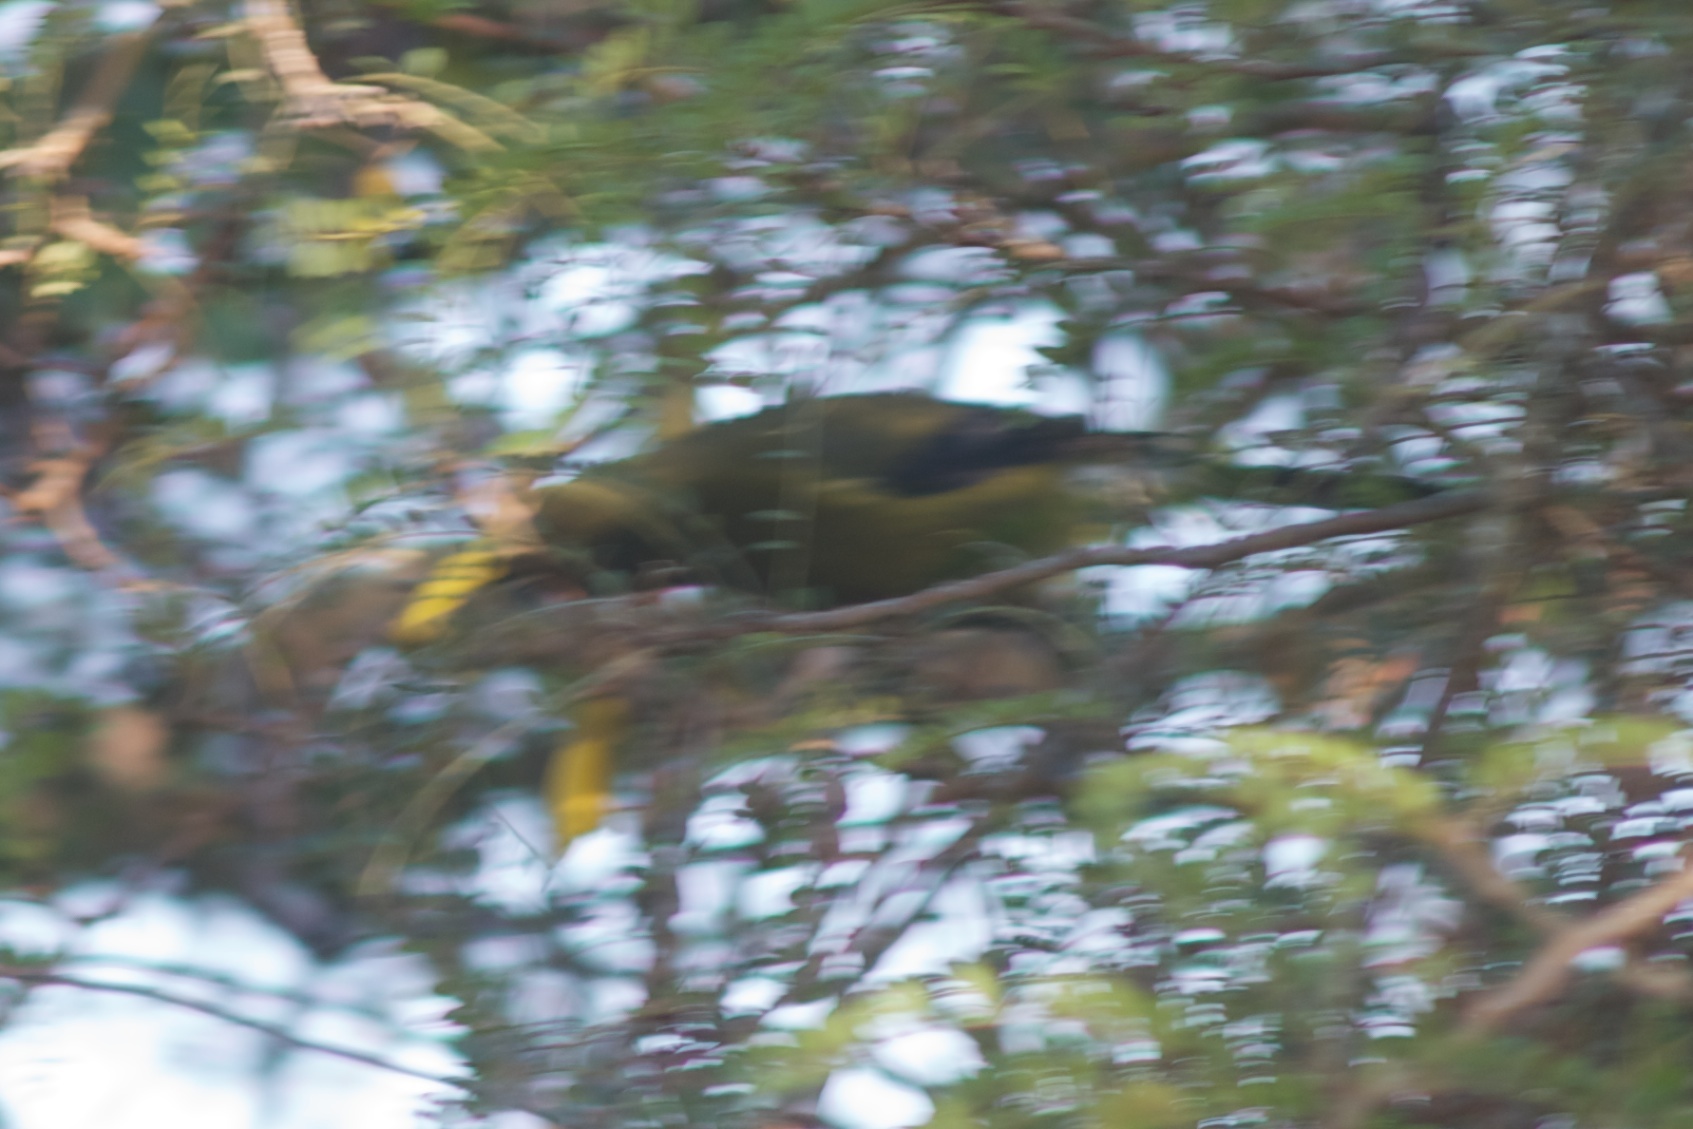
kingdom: Animalia
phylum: Chordata
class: Aves
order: Passeriformes
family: Meliphagidae
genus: Anthornis
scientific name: Anthornis melanura
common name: New zealand bellbird
